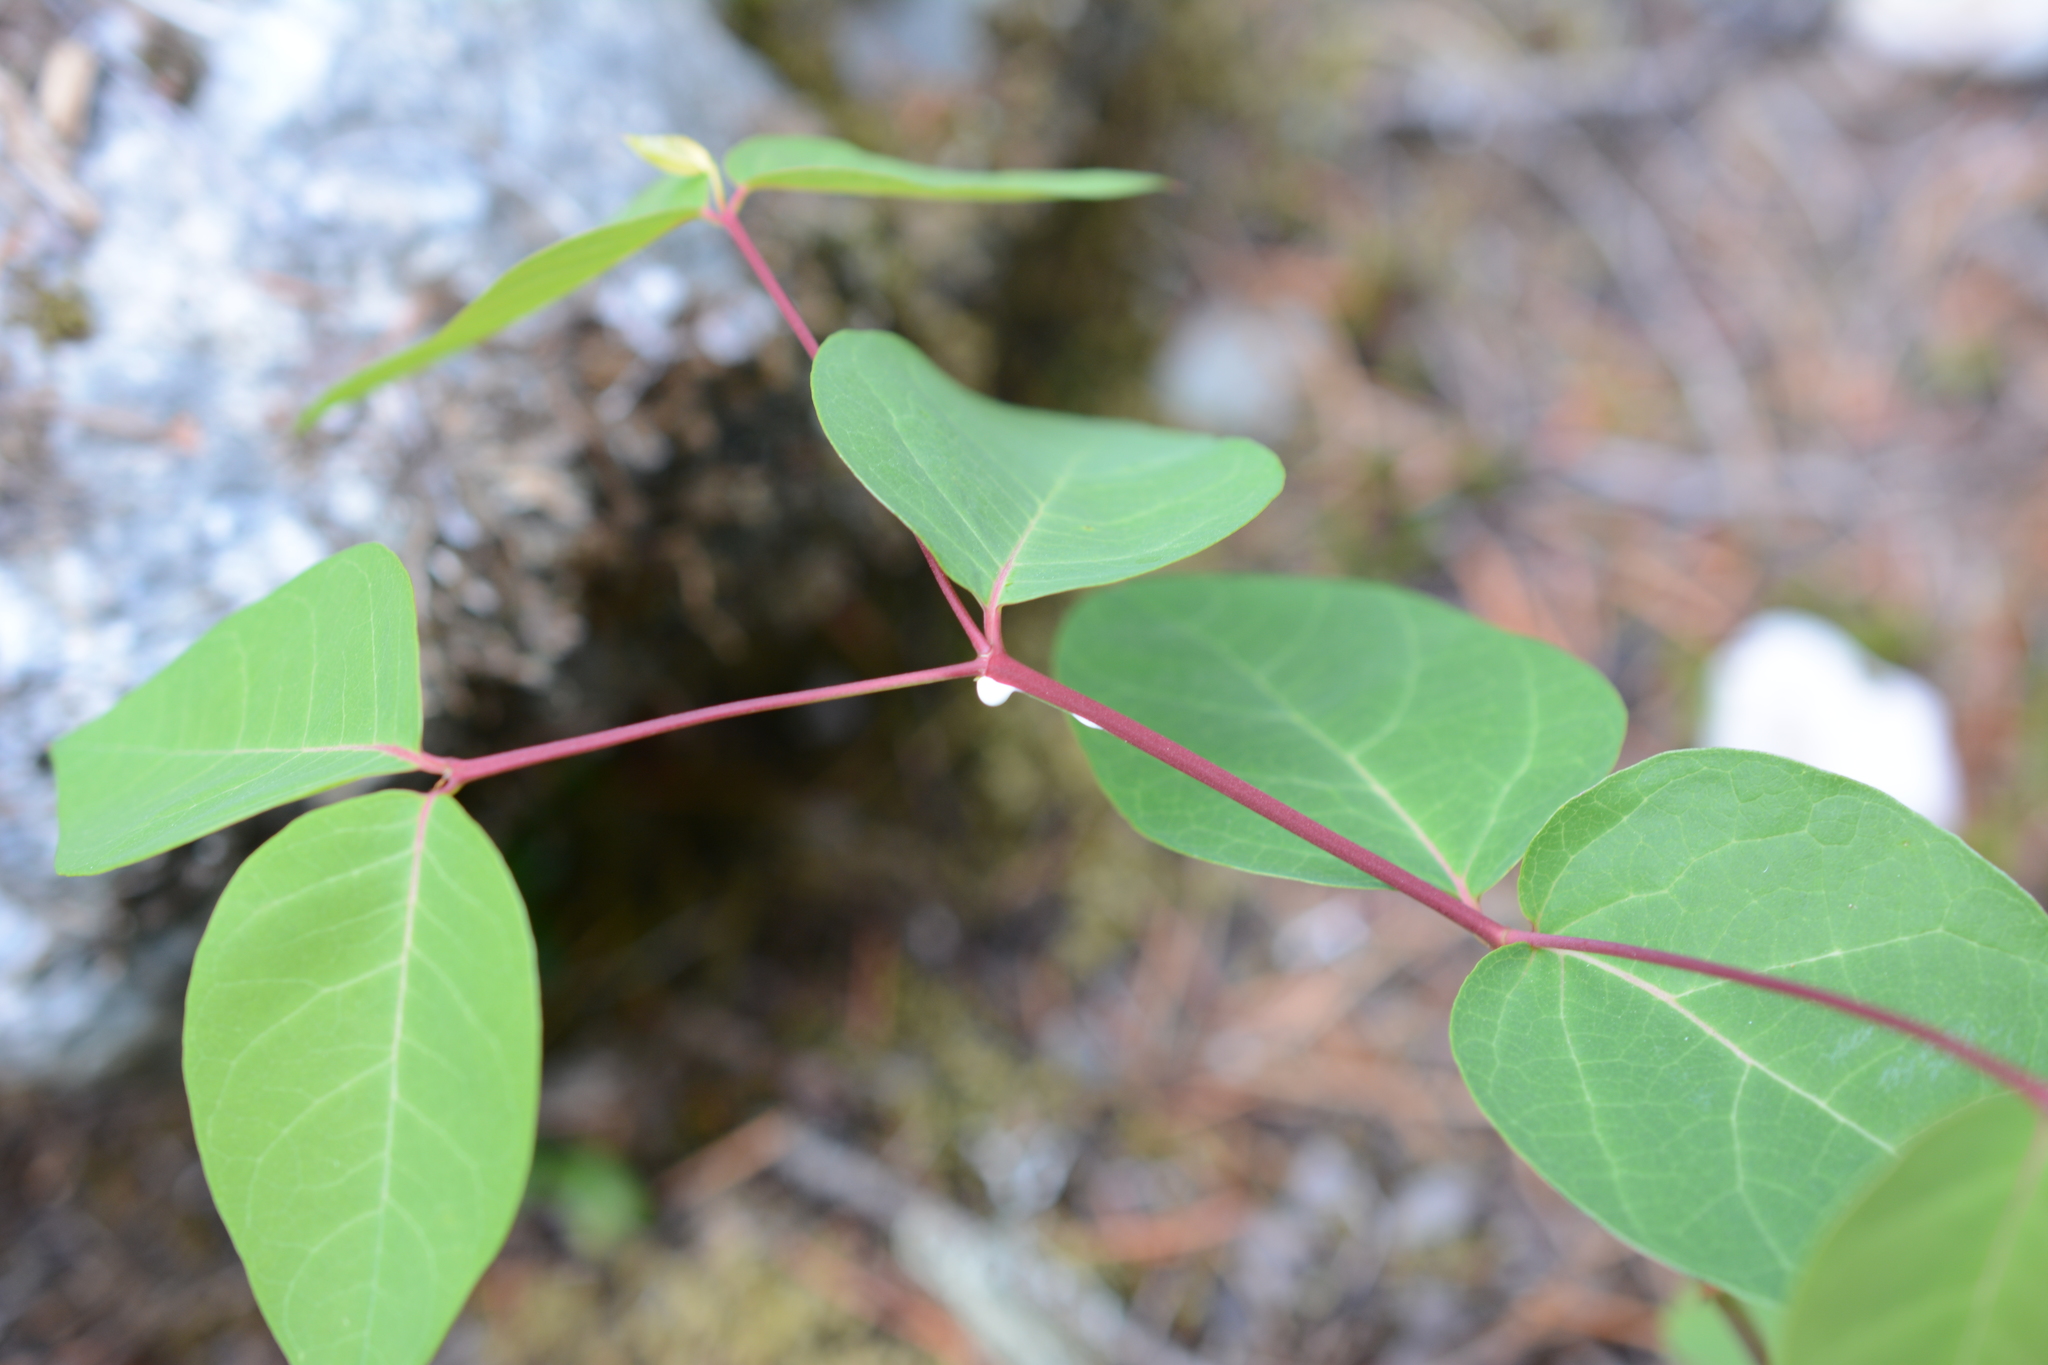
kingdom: Plantae
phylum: Tracheophyta
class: Magnoliopsida
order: Gentianales
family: Apocynaceae
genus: Apocynum
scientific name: Apocynum androsaemifolium
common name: Spreading dogbane
